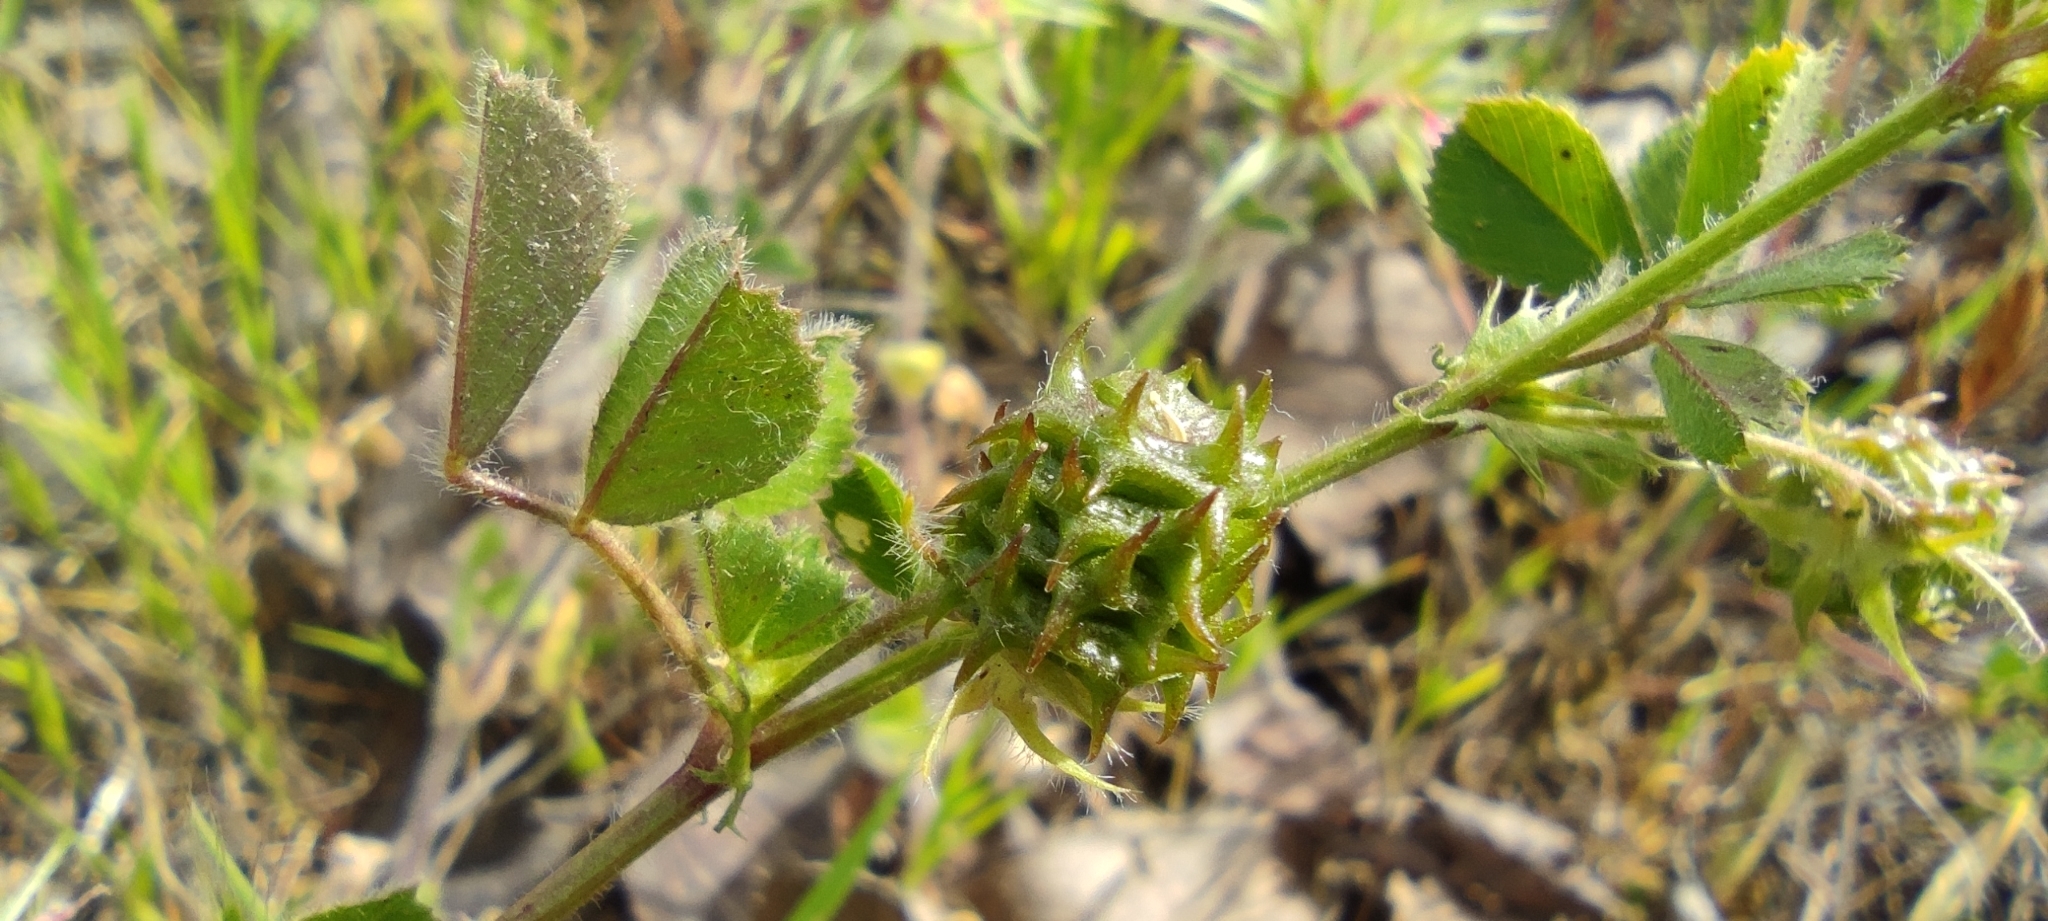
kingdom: Plantae
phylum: Tracheophyta
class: Magnoliopsida
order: Fabales
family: Fabaceae
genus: Medicago
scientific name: Medicago truncatula
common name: Strong-spined medick
